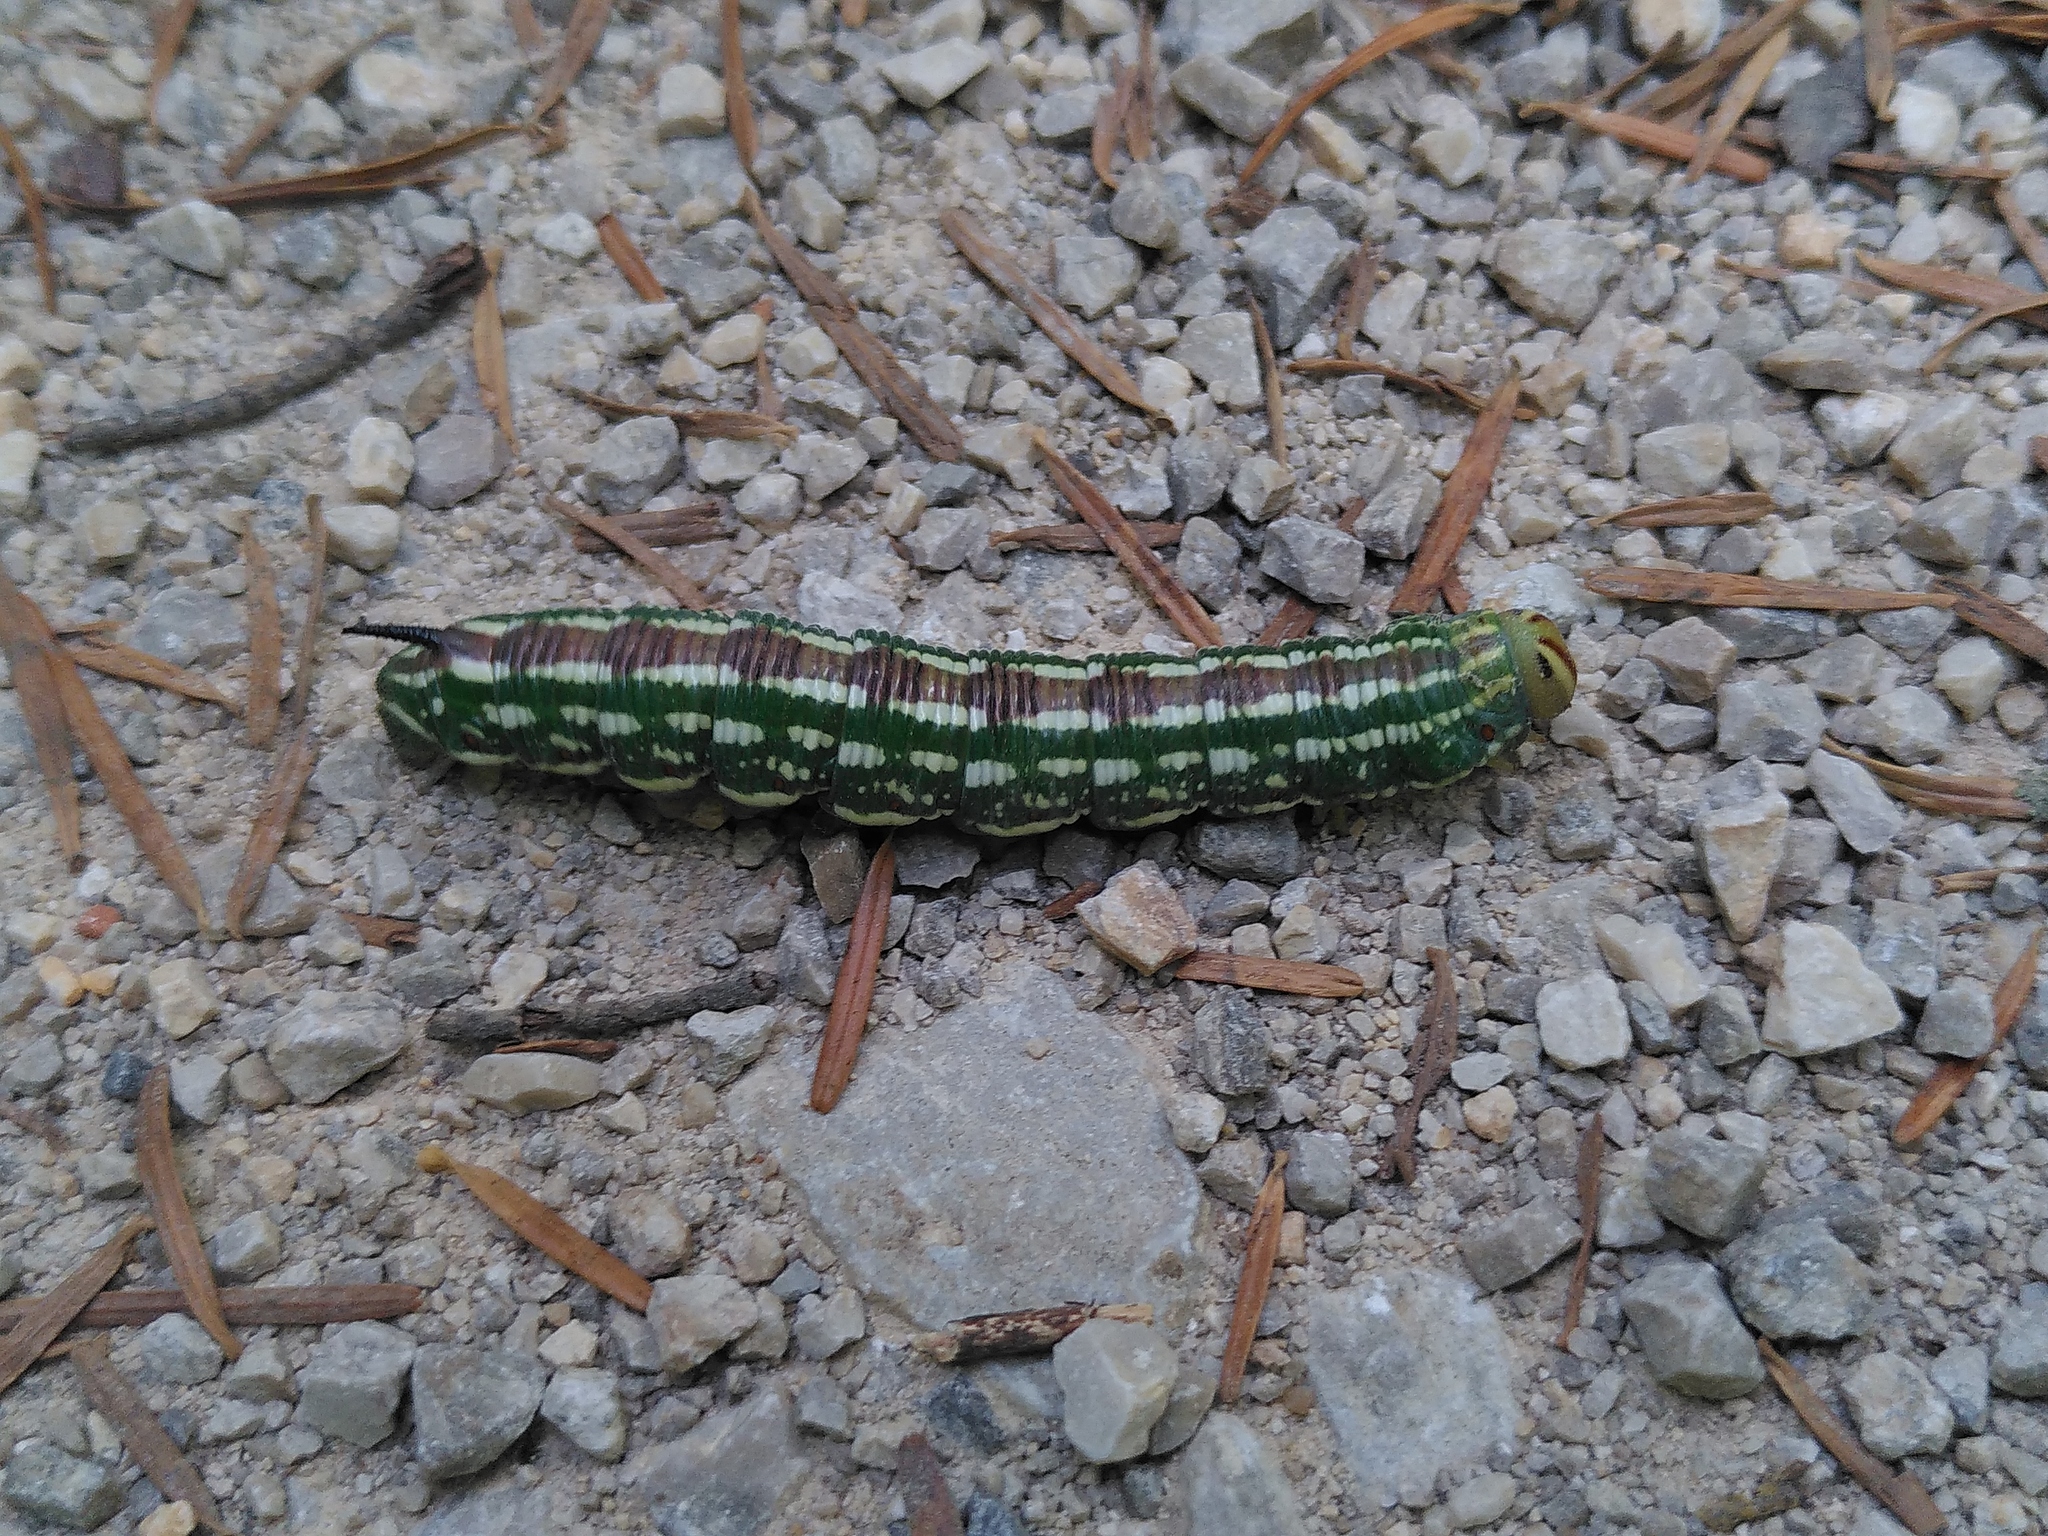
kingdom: Animalia
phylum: Arthropoda
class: Insecta
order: Lepidoptera
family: Sphingidae
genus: Sphinx
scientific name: Sphinx pinastri
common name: Pine hawk-moth
